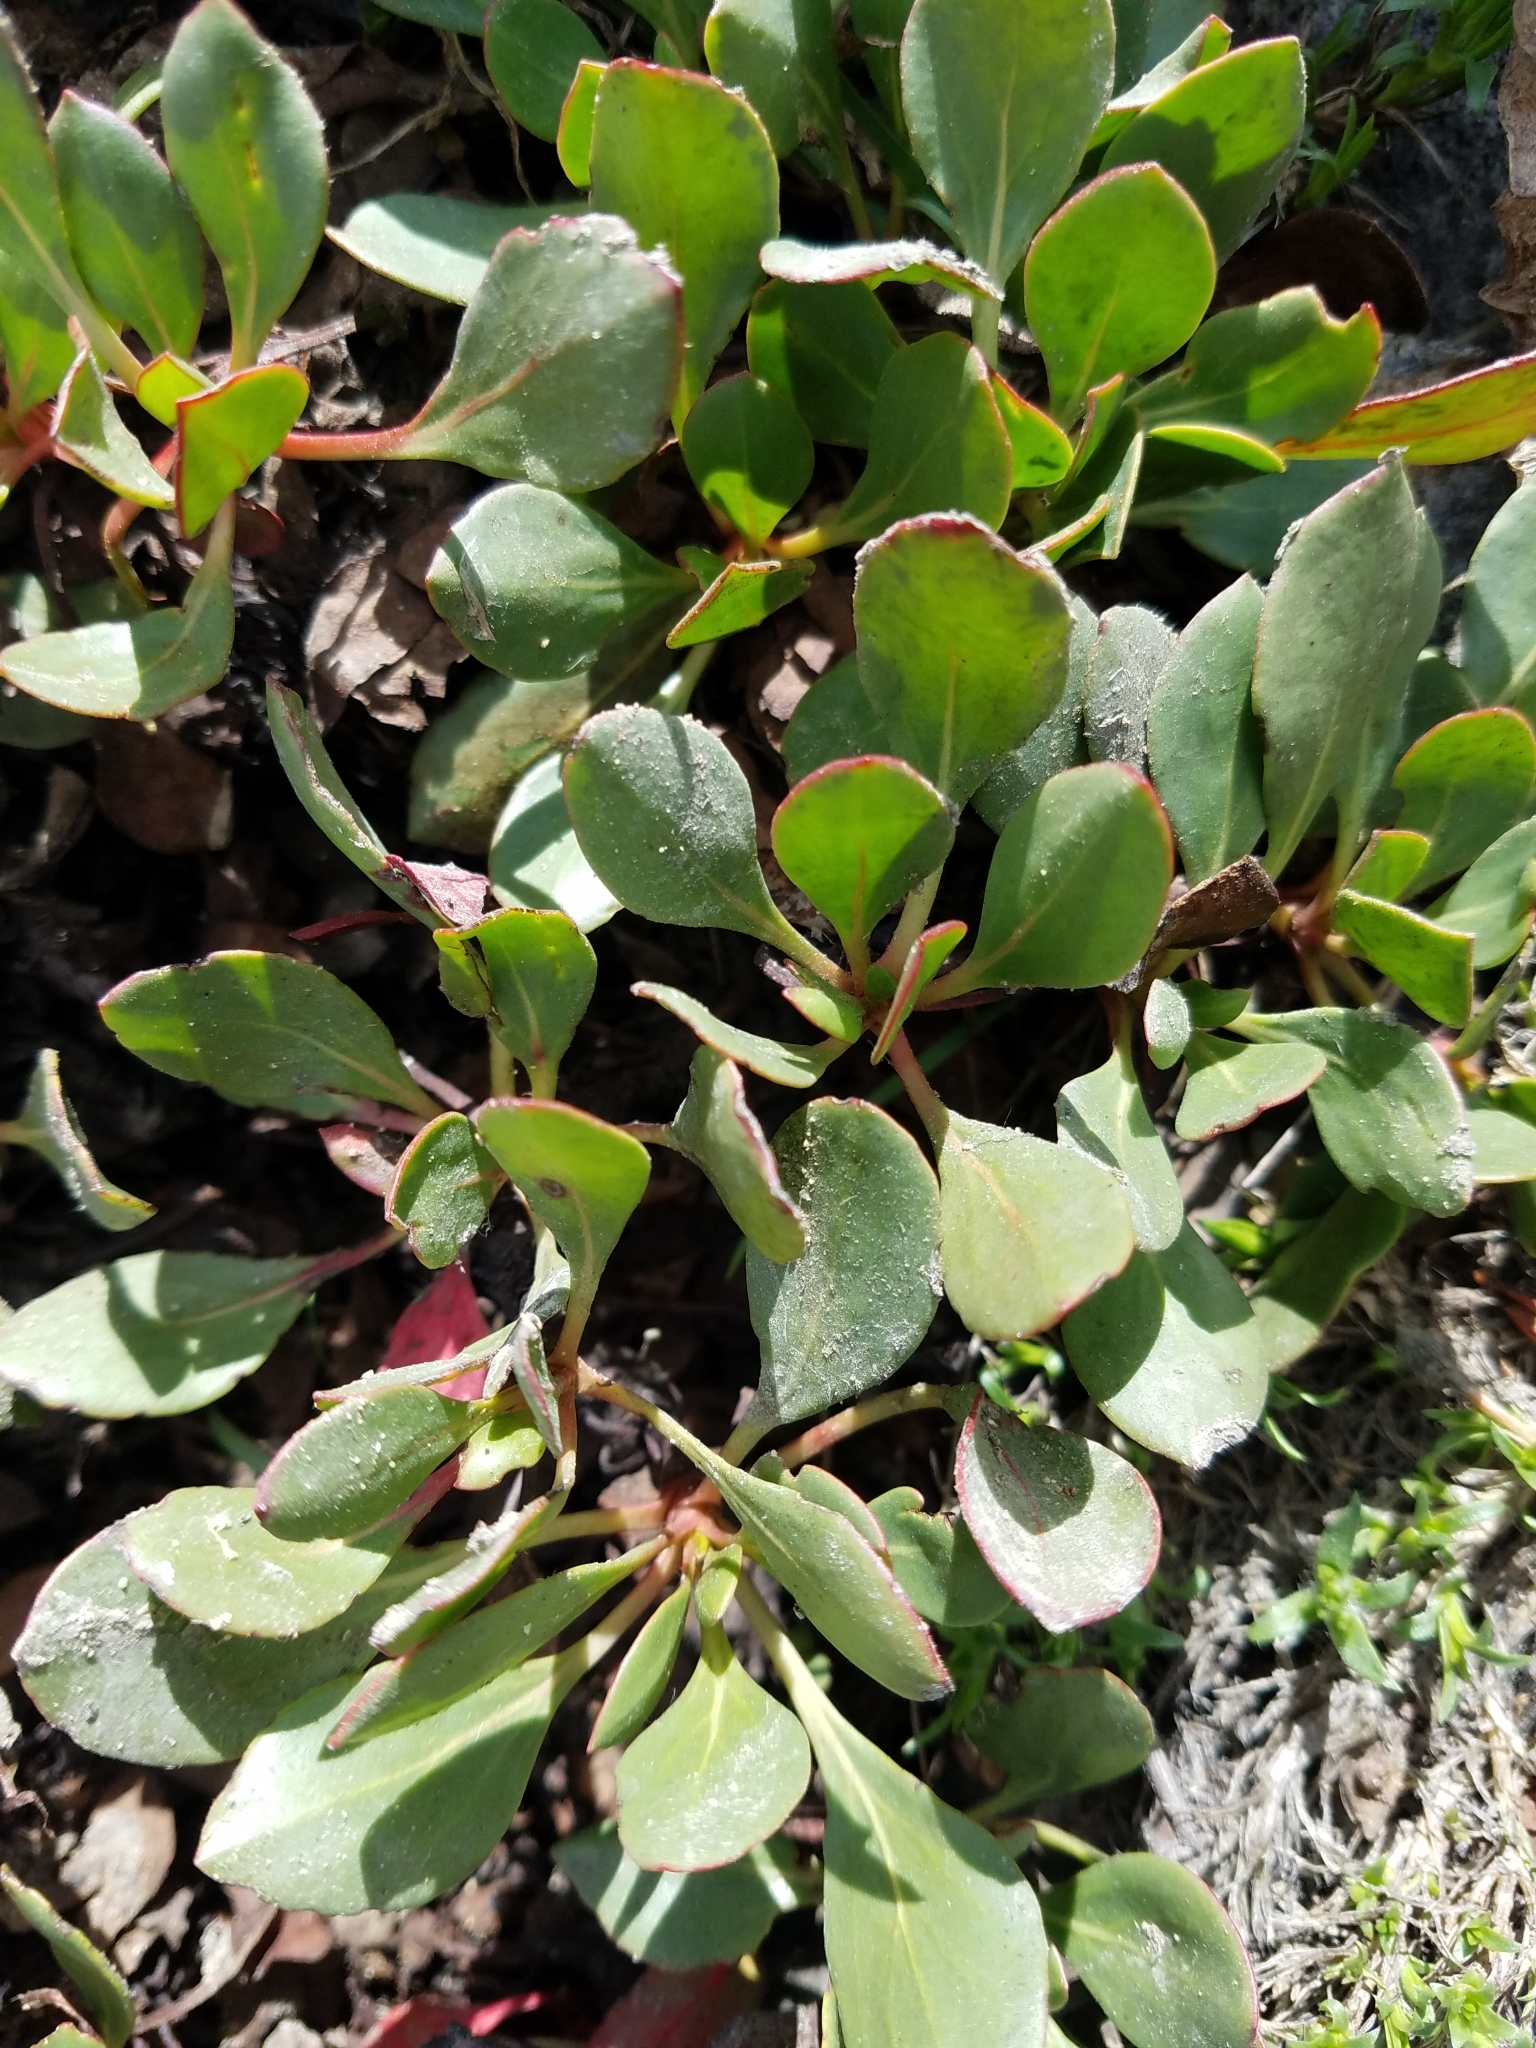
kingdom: Plantae
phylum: Tracheophyta
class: Magnoliopsida
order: Caryophyllales
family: Polygonaceae
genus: Eriogonum
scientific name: Eriogonum umbellatum
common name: Sulfur-buckwheat
